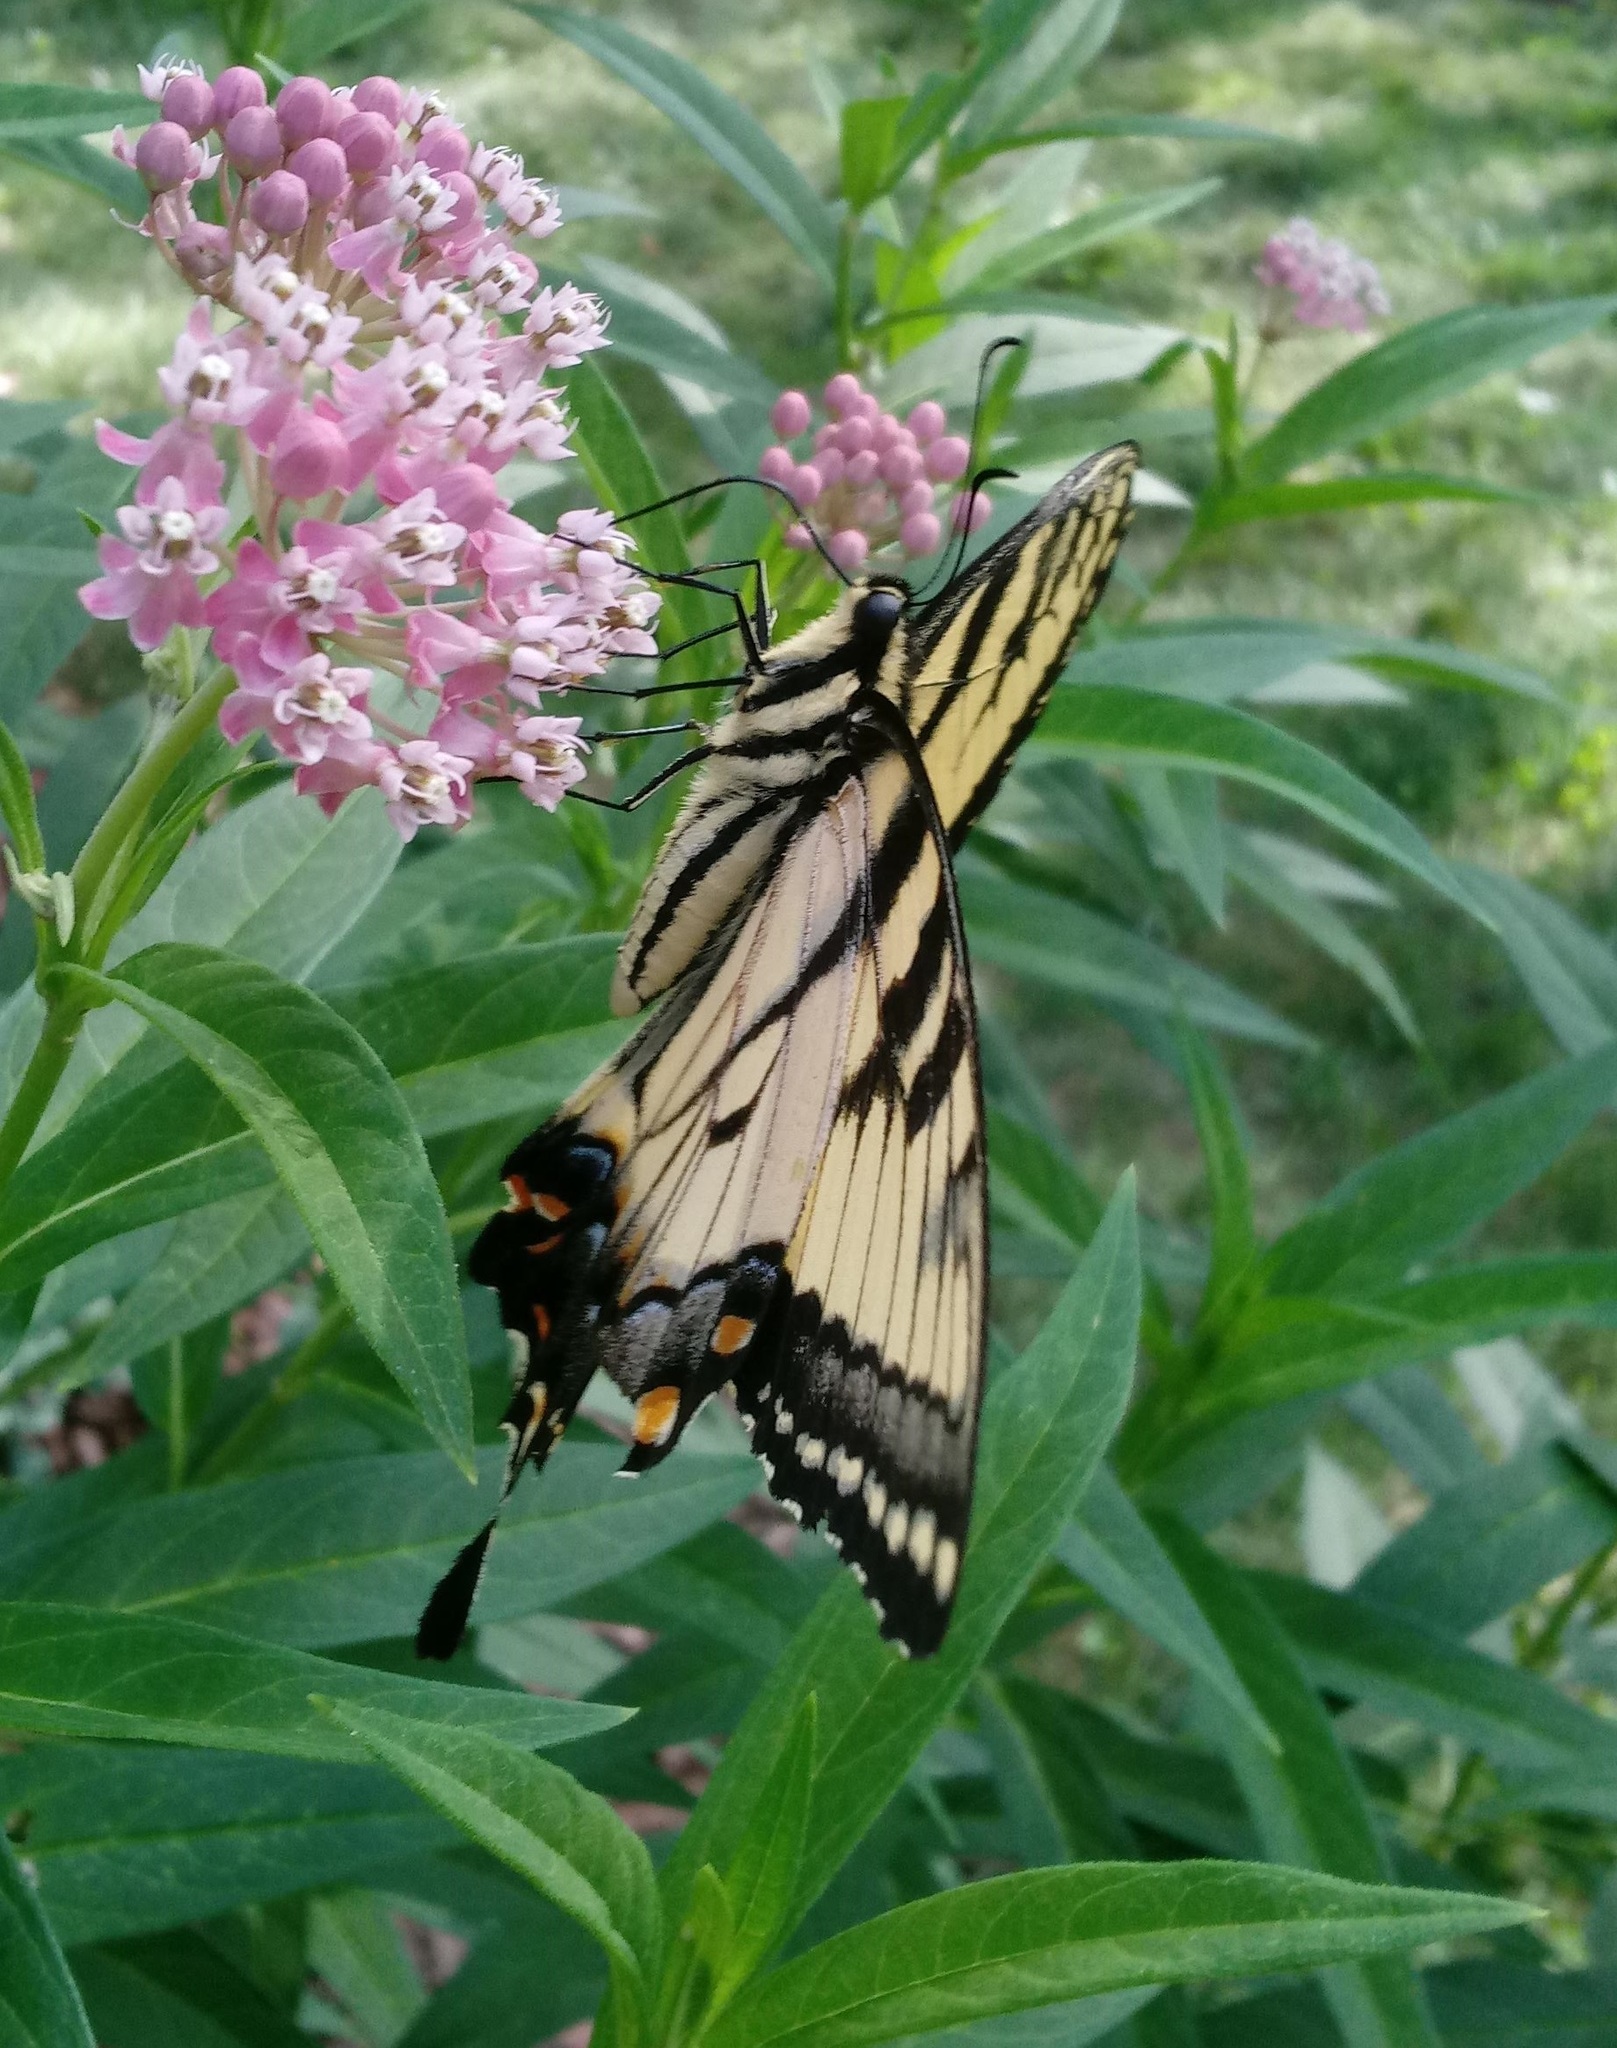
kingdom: Animalia
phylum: Arthropoda
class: Insecta
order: Lepidoptera
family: Papilionidae
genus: Papilio
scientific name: Papilio glaucus
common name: Tiger swallowtail
